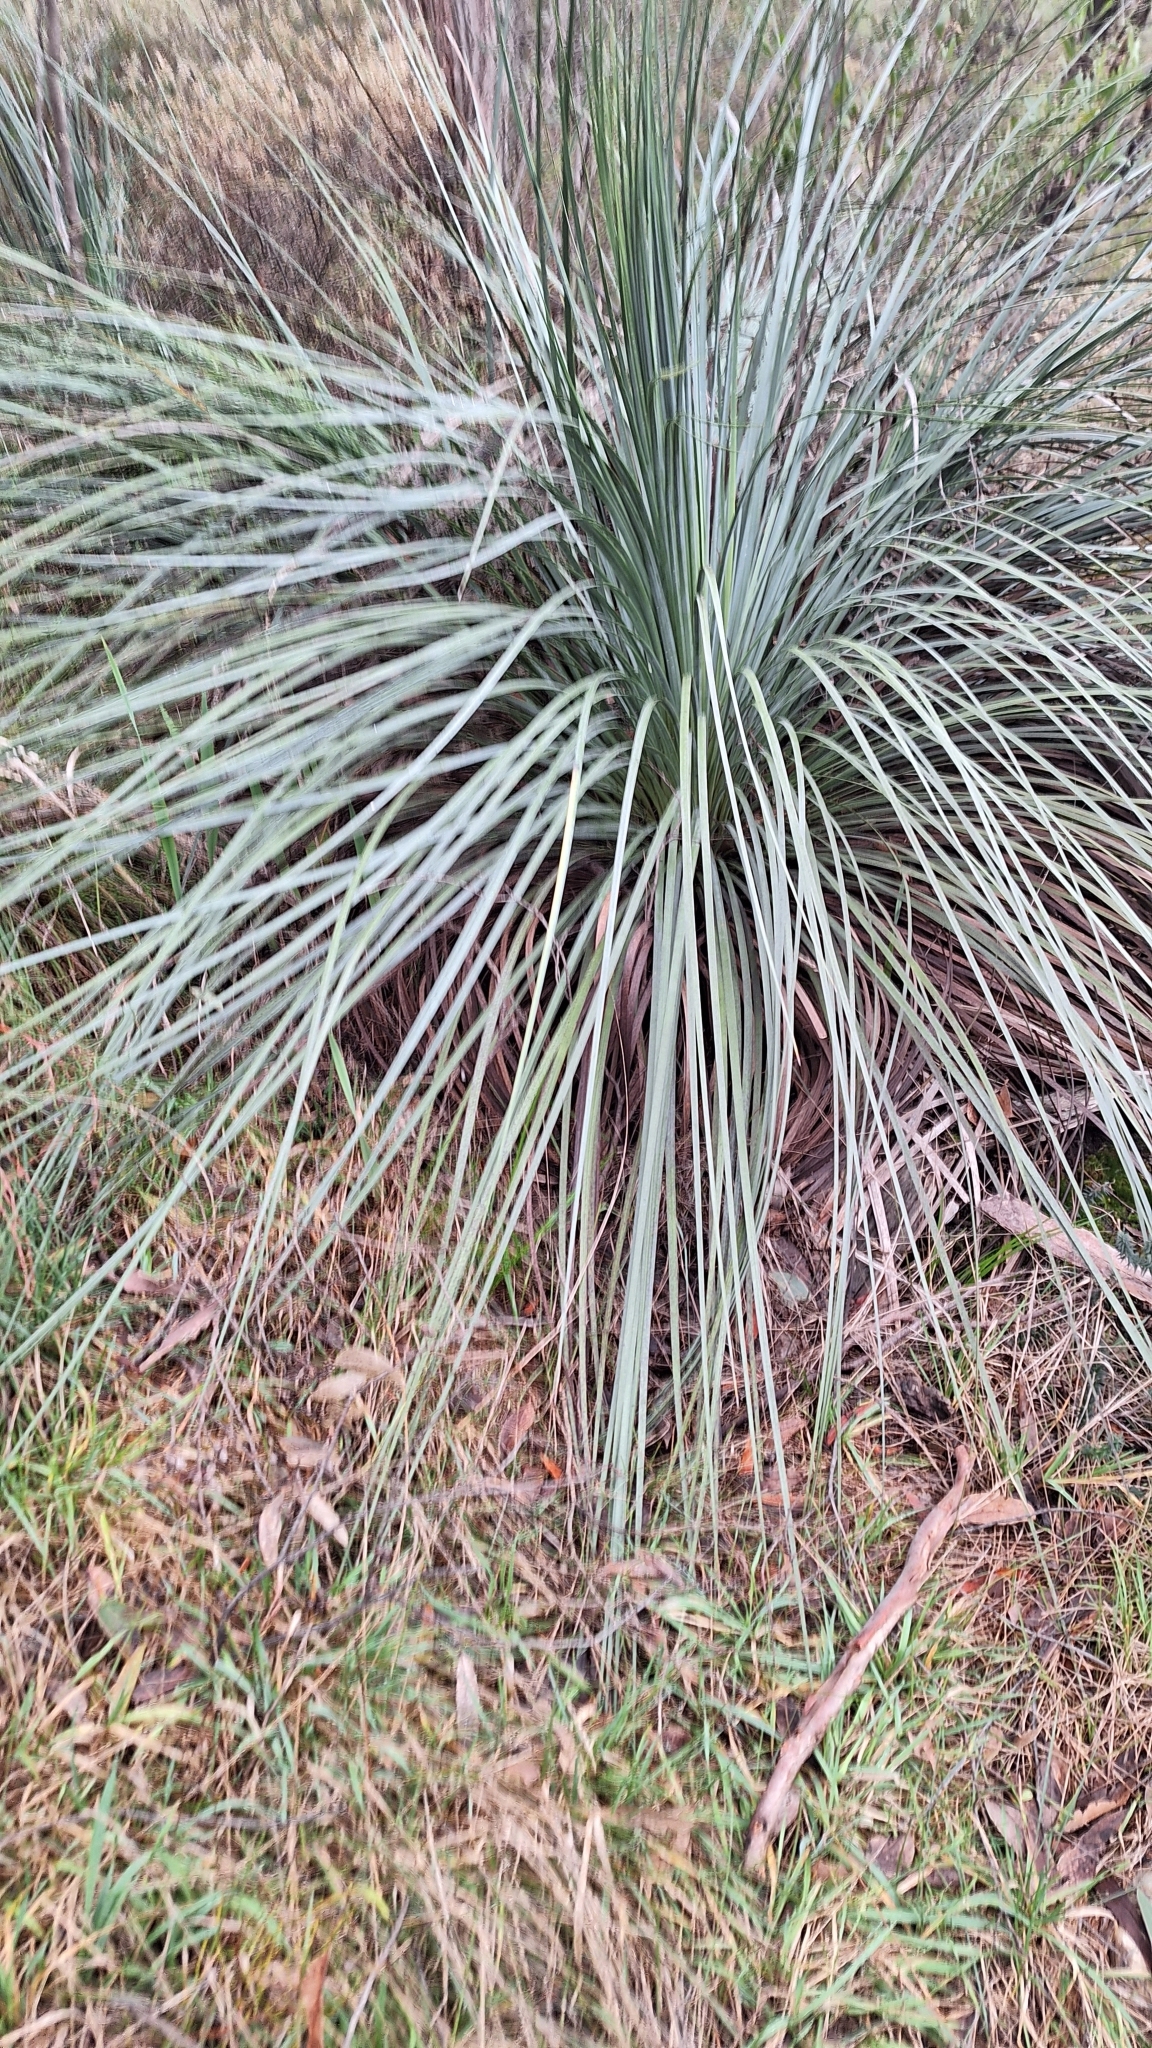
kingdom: Plantae
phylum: Tracheophyta
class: Liliopsida
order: Asparagales
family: Asphodelaceae
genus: Xanthorrhoea
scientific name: Xanthorrhoea semiplana
